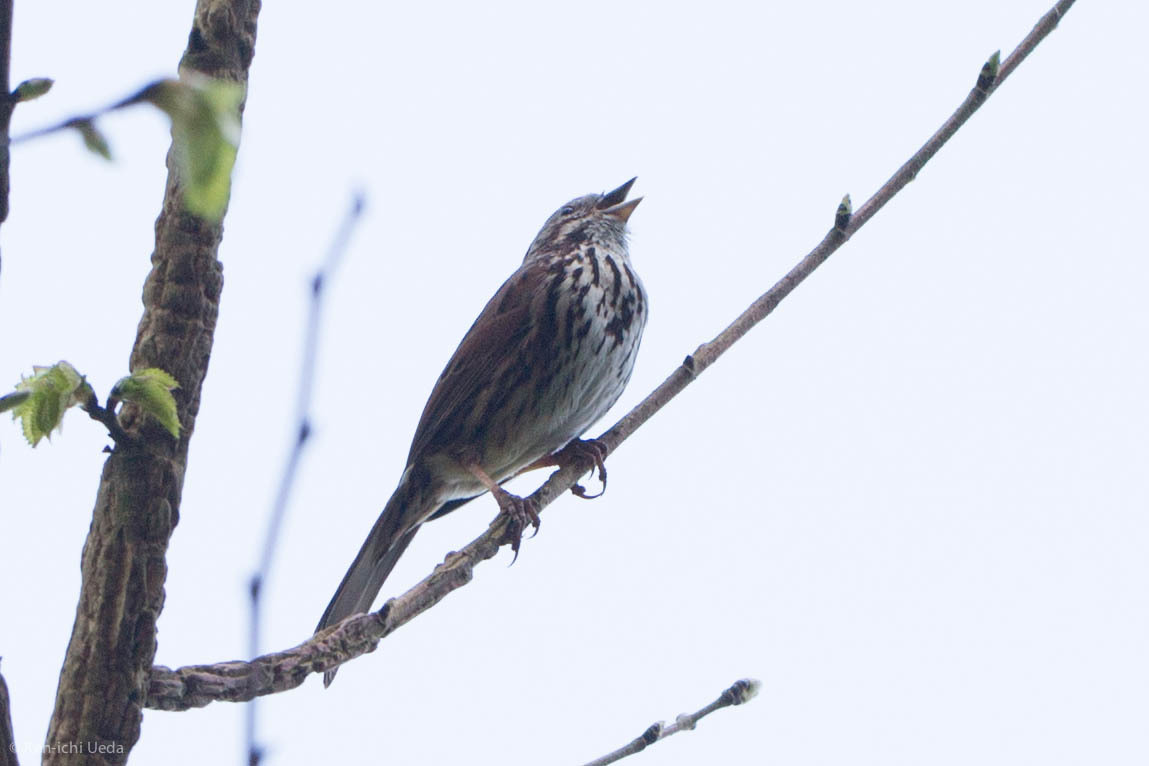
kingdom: Animalia
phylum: Chordata
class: Aves
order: Passeriformes
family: Passerellidae
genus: Melospiza
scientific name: Melospiza melodia
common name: Song sparrow
